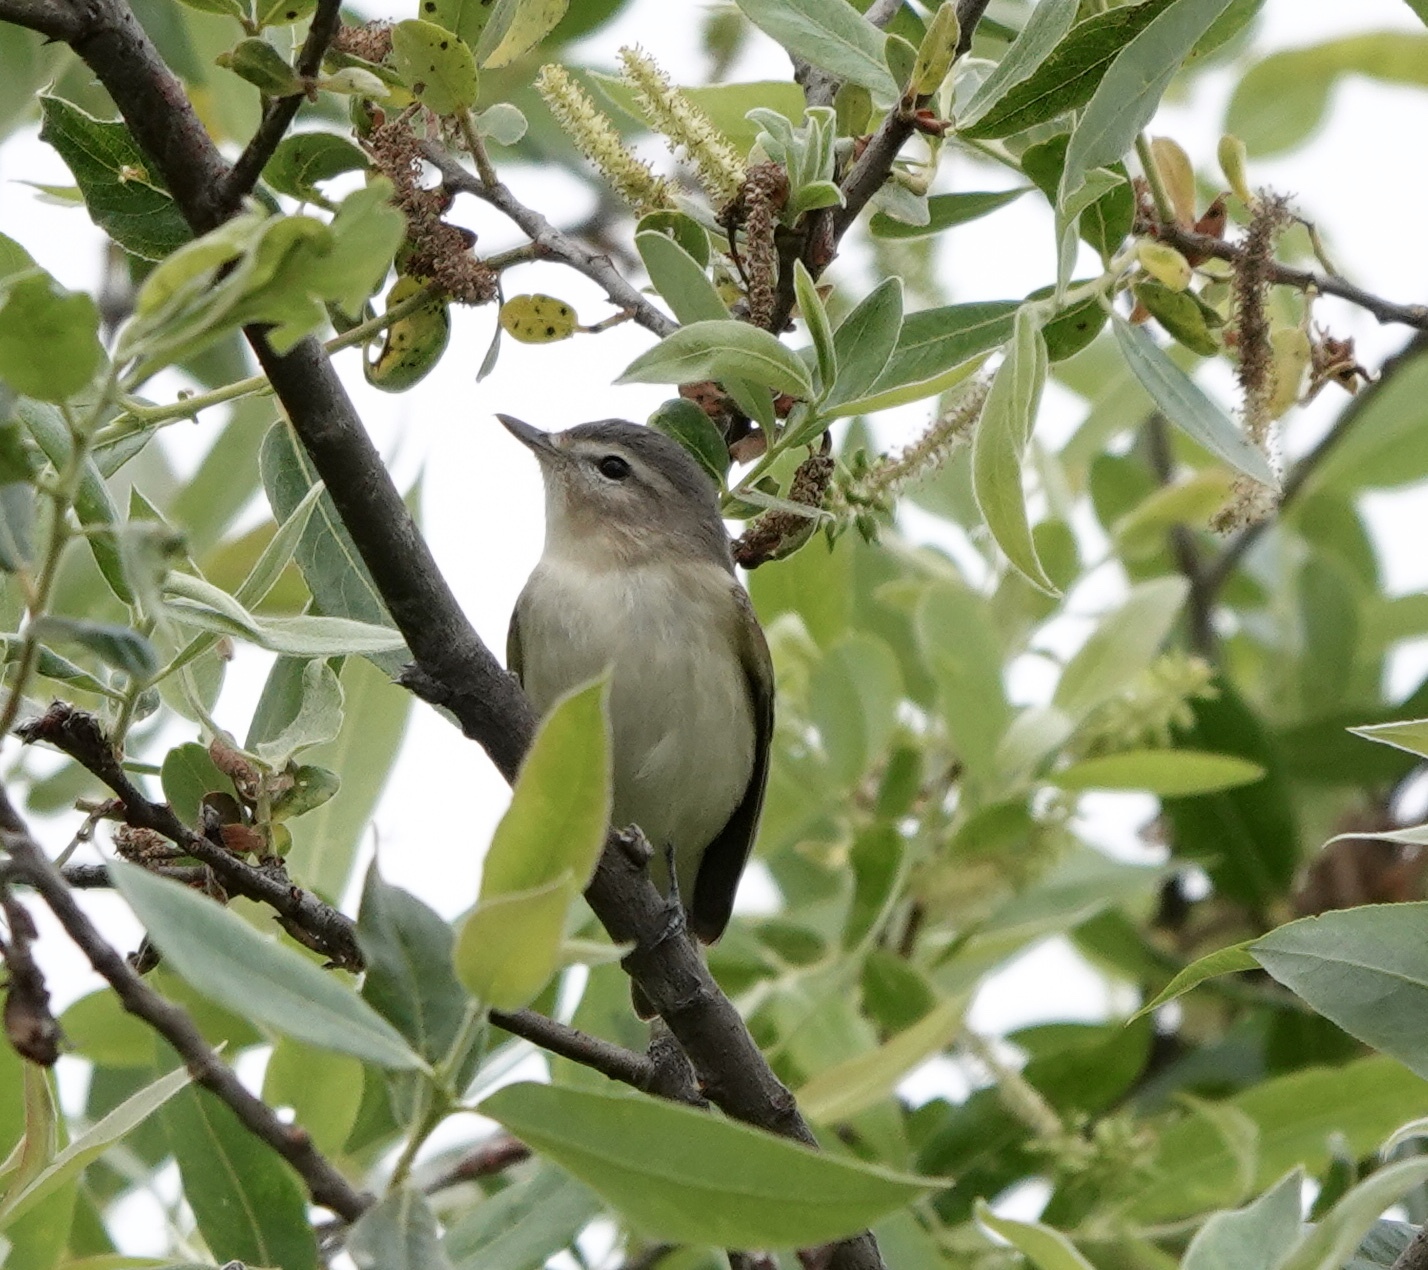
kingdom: Animalia
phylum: Chordata
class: Aves
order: Passeriformes
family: Vireonidae
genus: Vireo
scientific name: Vireo gilvus
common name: Warbling vireo
